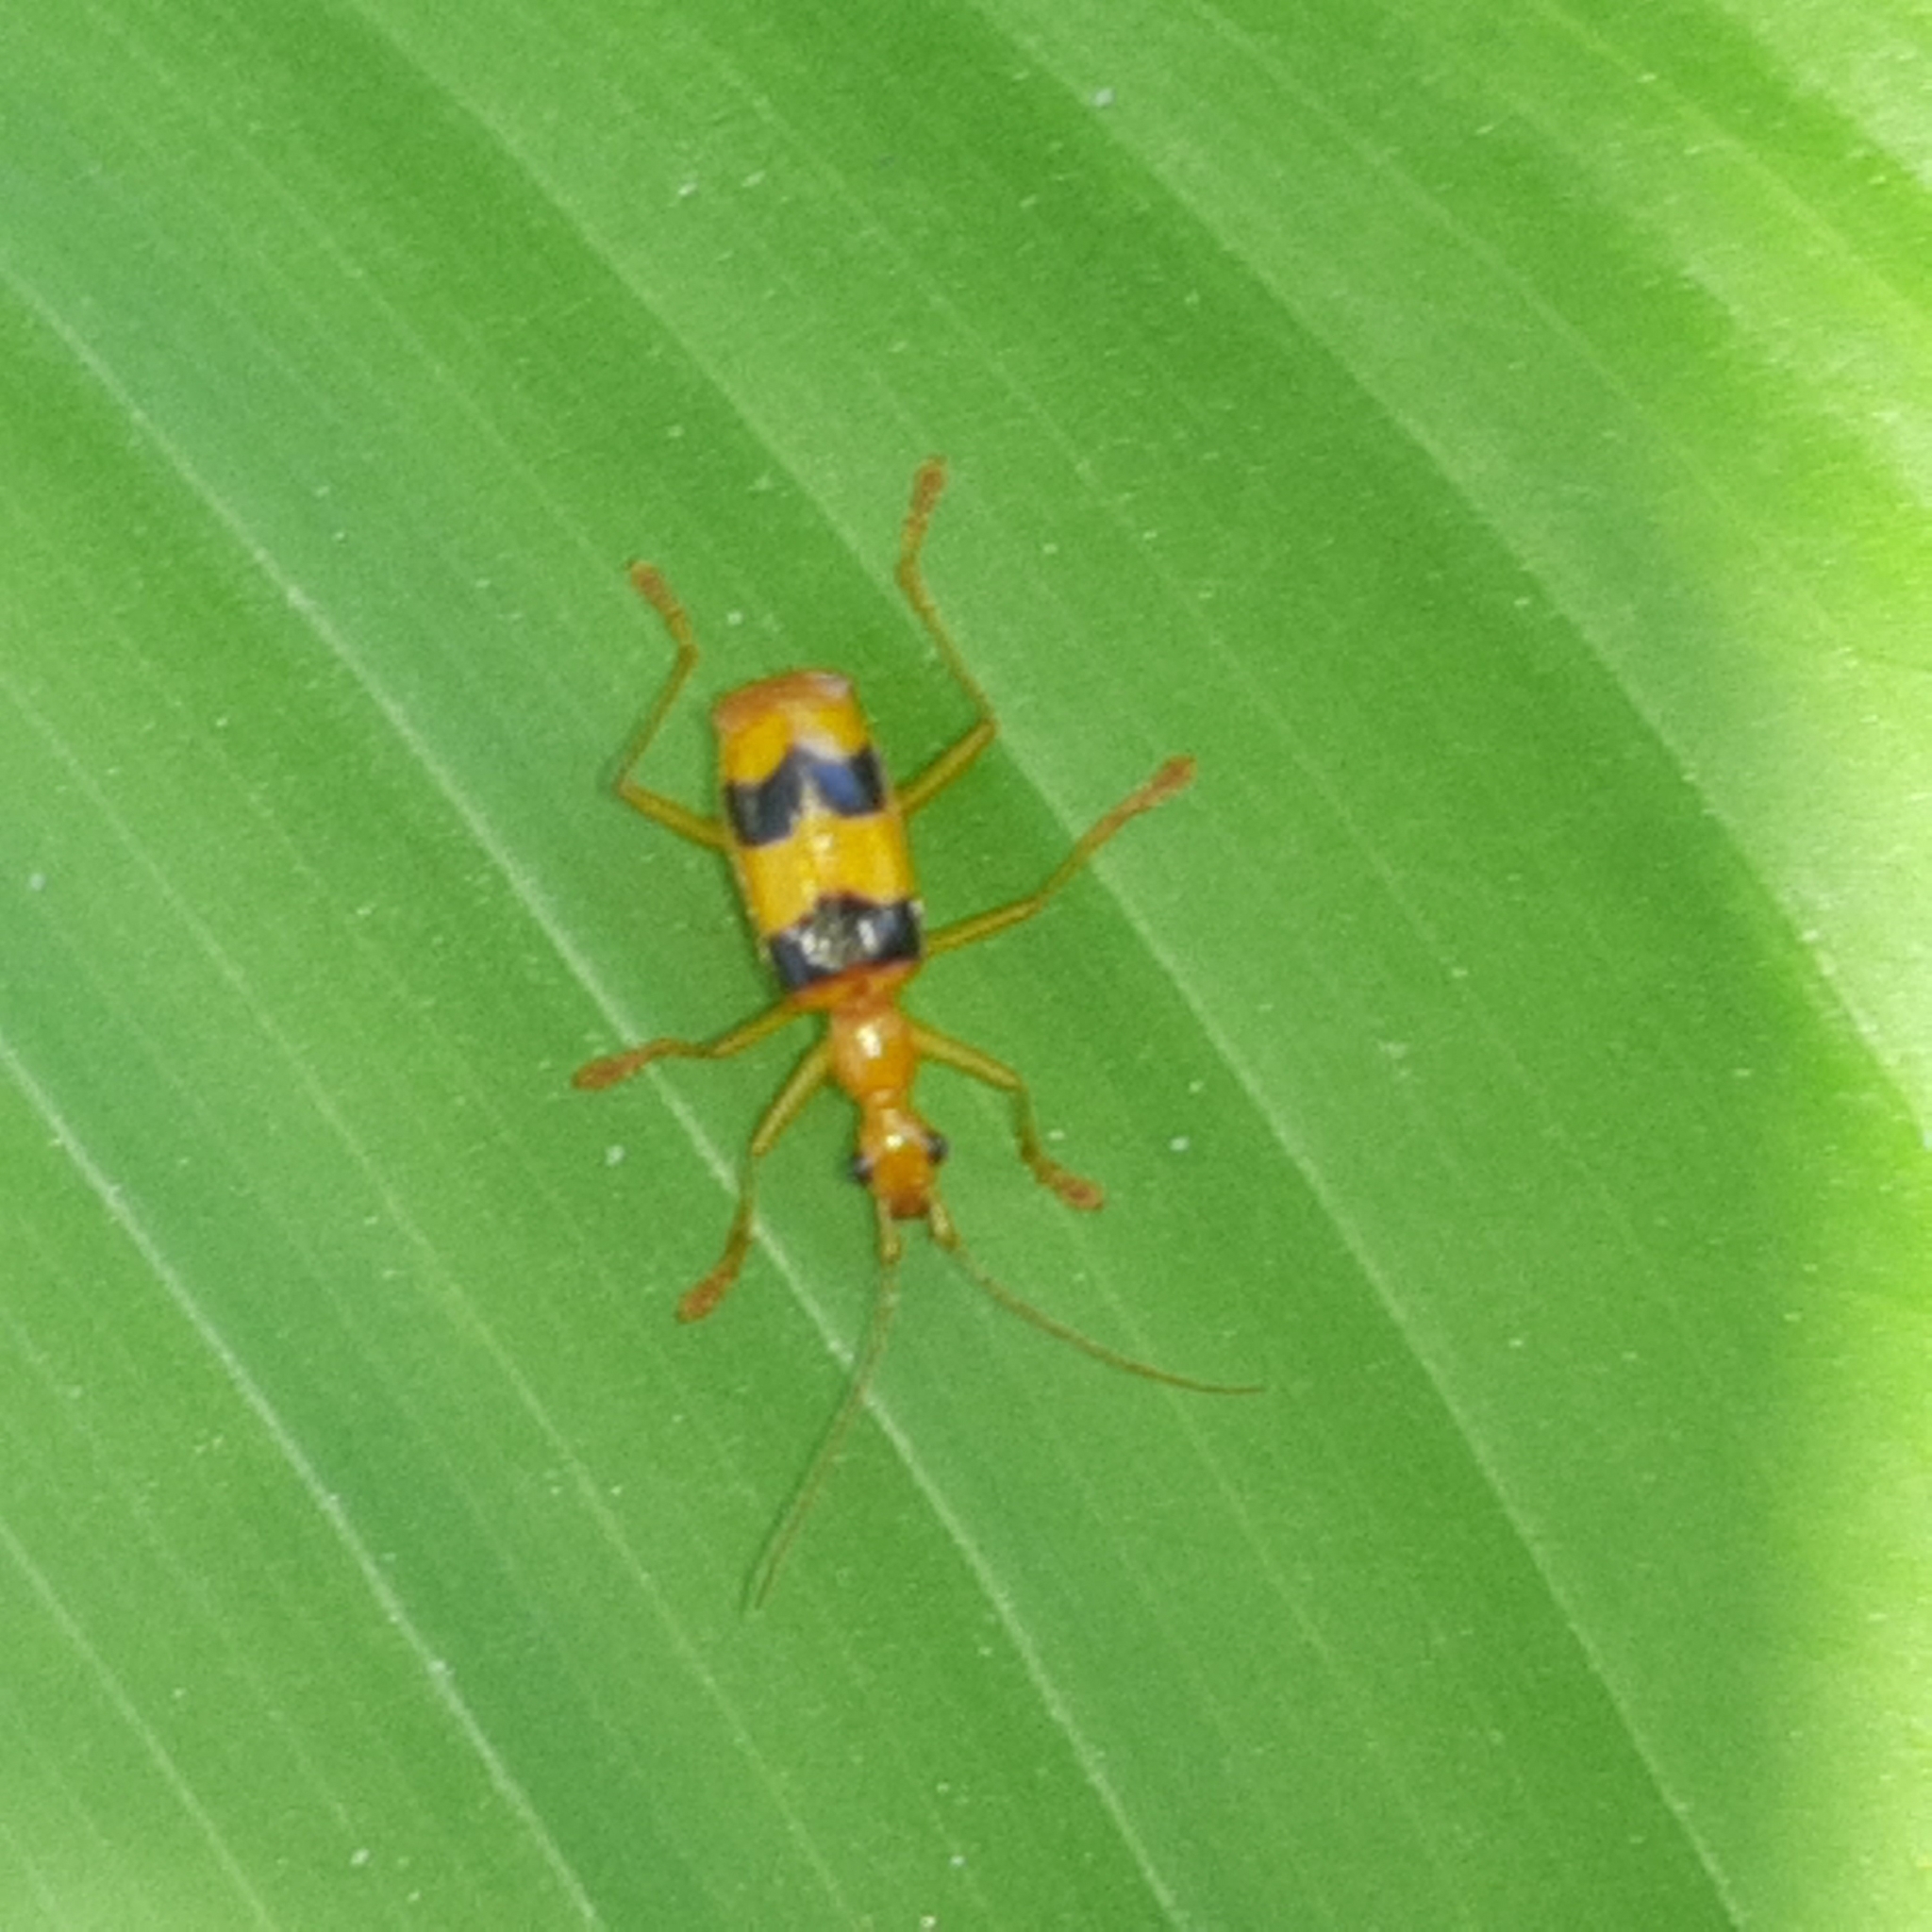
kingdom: Animalia
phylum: Arthropoda
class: Insecta
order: Coleoptera
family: Carabidae
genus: Calophaena
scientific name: Calophaena ligata
